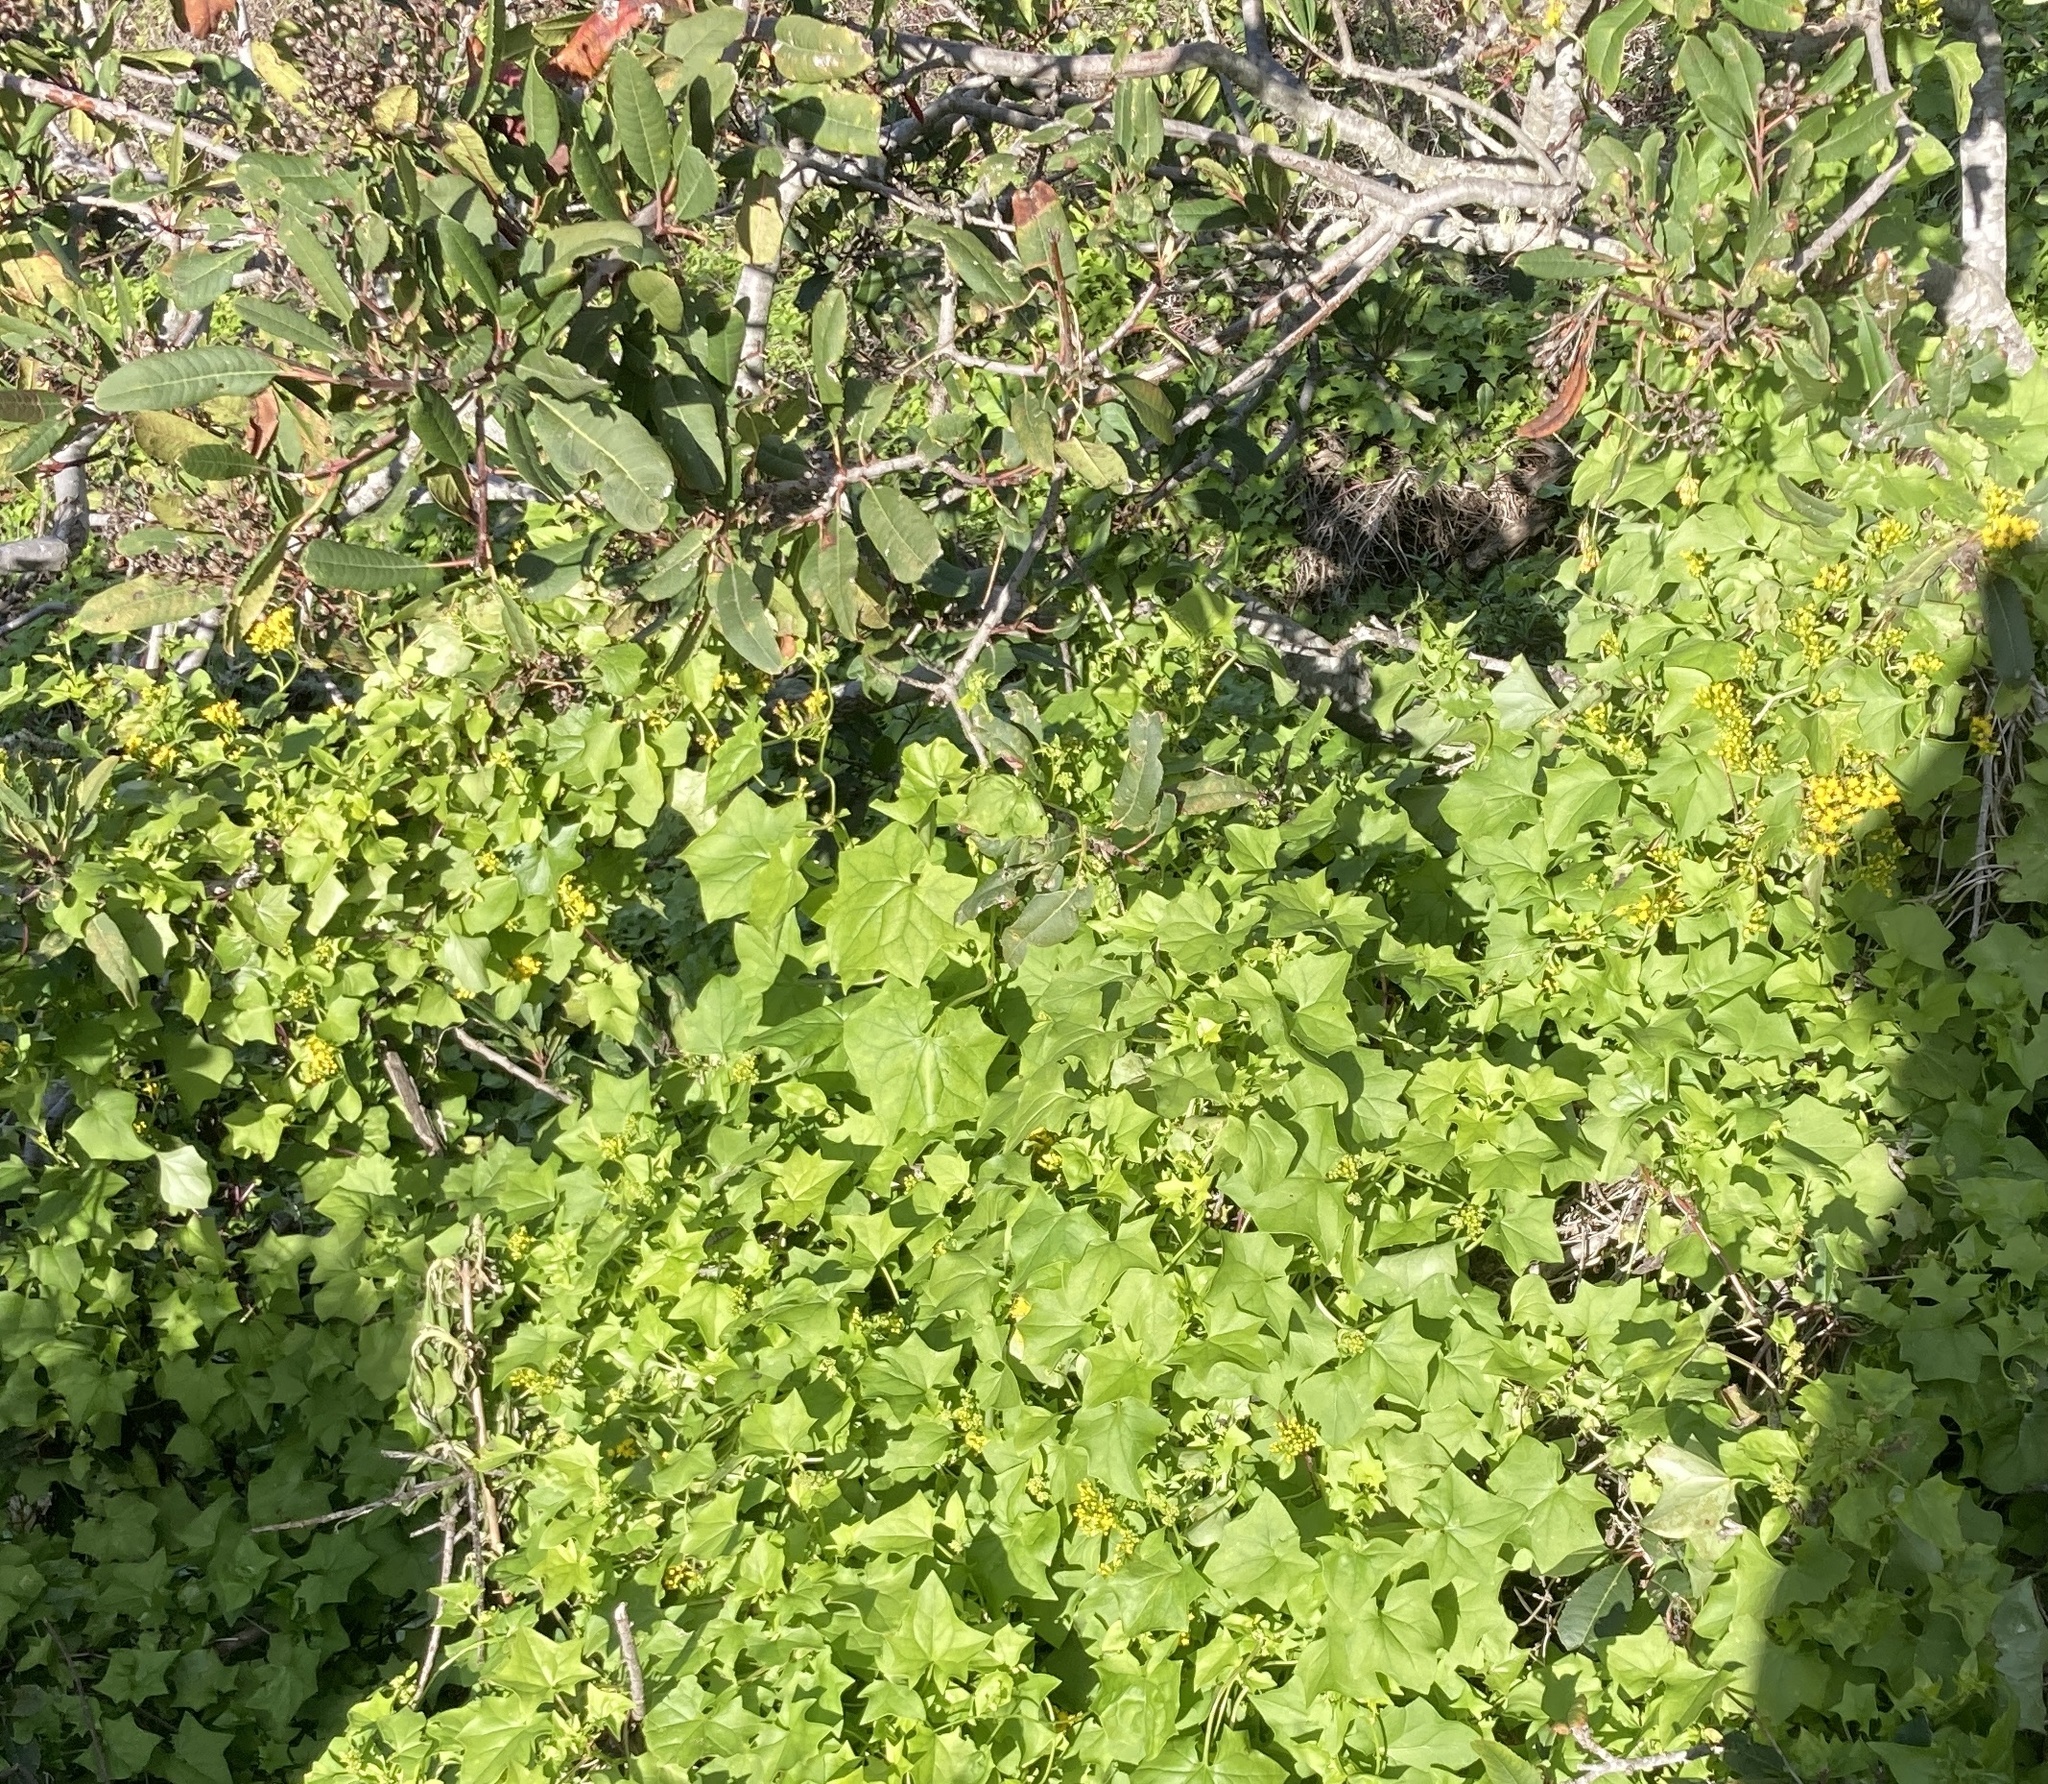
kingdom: Plantae
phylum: Tracheophyta
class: Magnoliopsida
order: Asterales
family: Asteraceae
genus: Delairea
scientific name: Delairea odorata
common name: Cape-ivy
